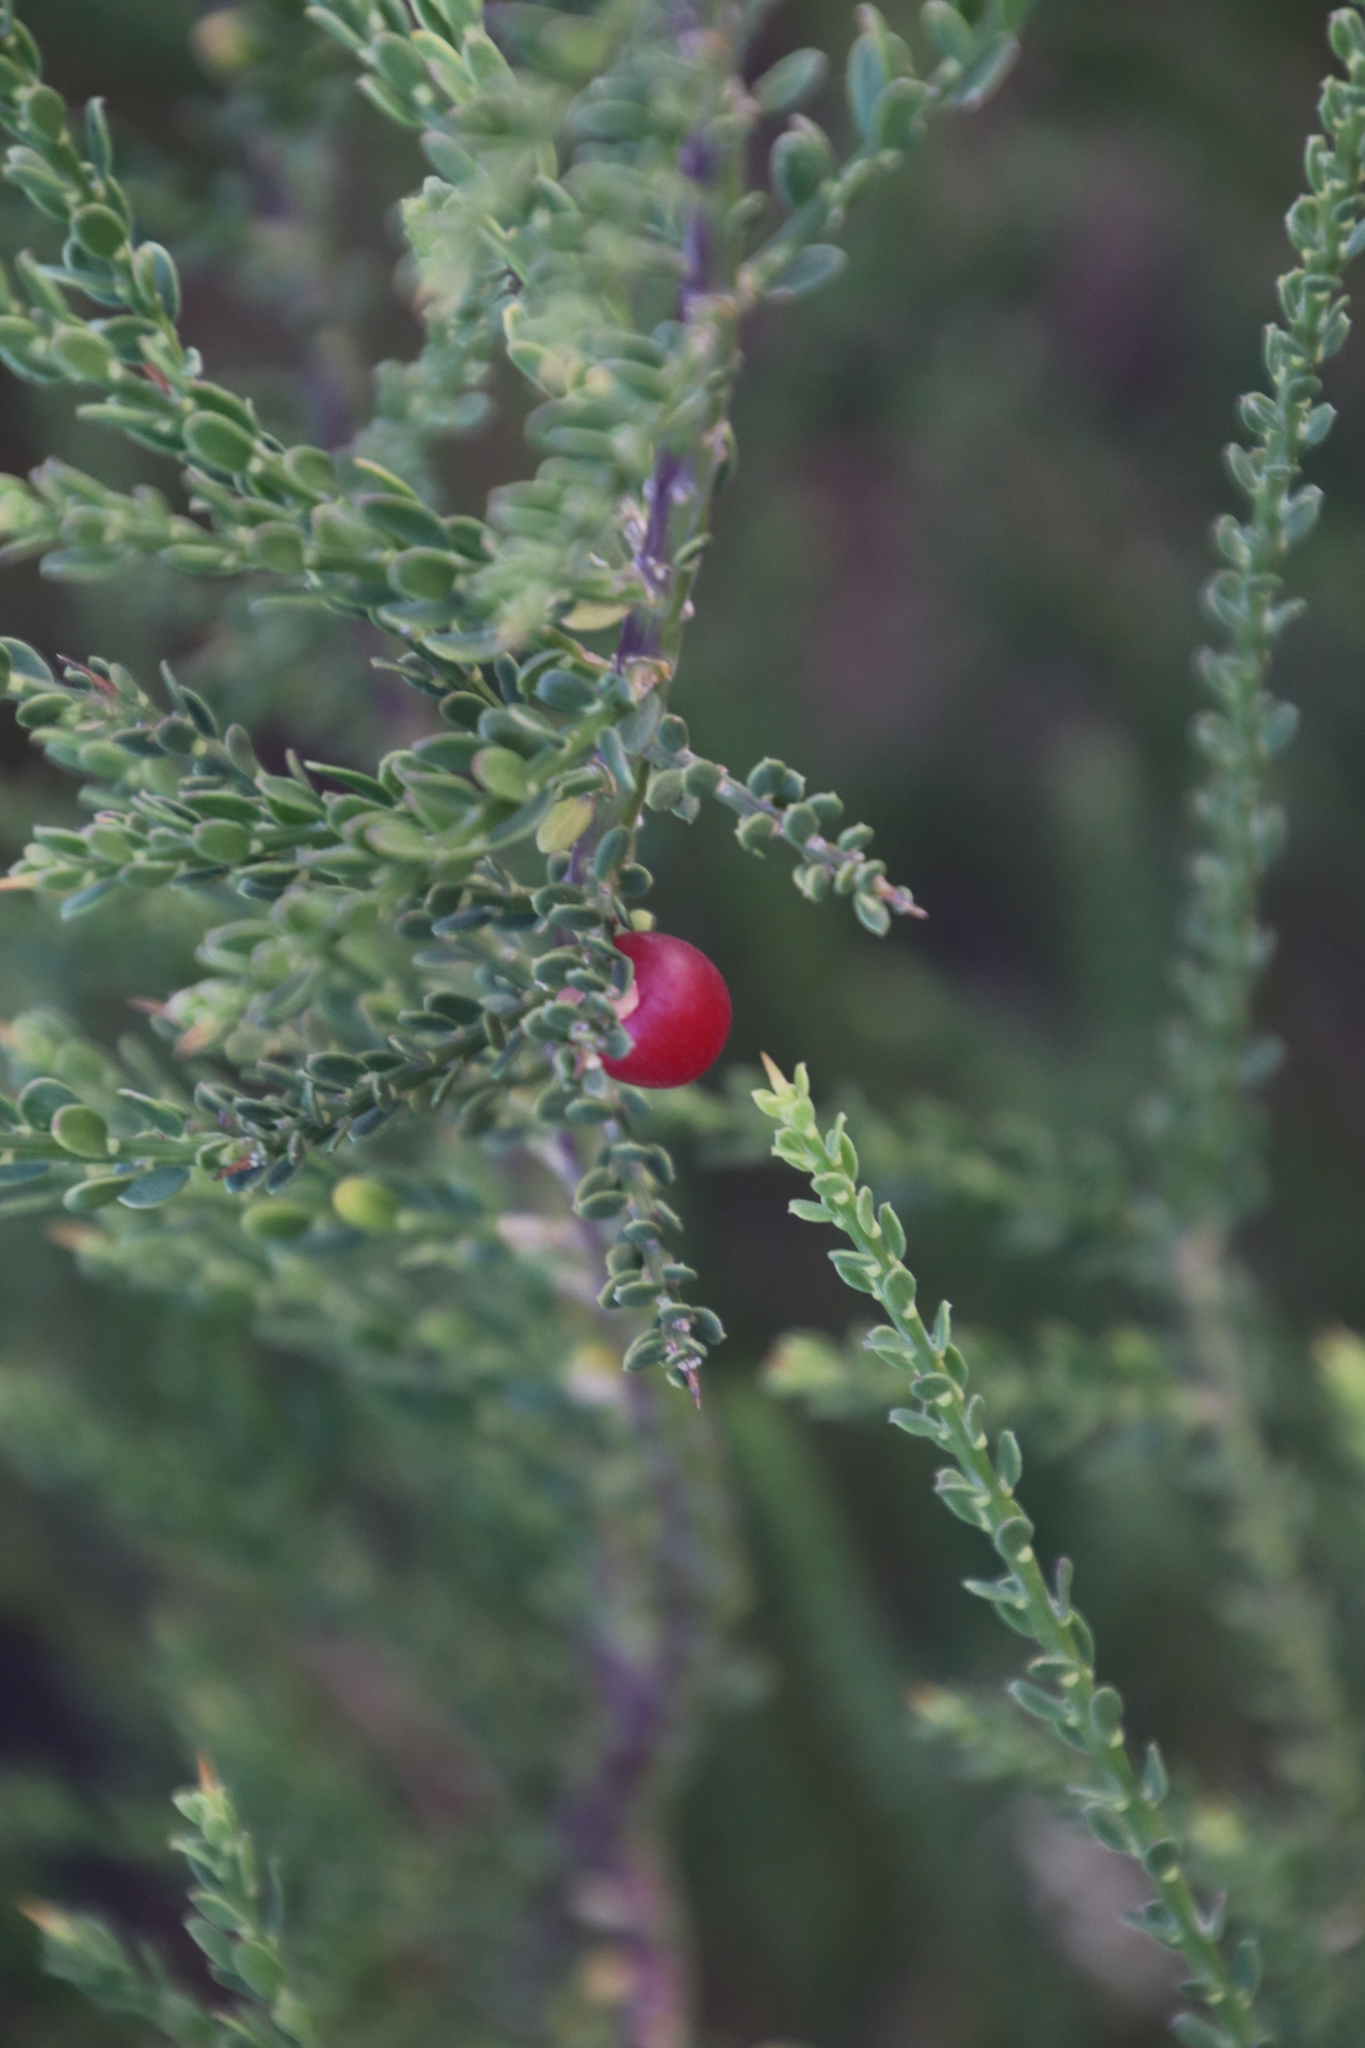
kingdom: Plantae
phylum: Tracheophyta
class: Magnoliopsida
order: Fabales
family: Polygalaceae
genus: Muraltia
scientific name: Muraltia spinosa
